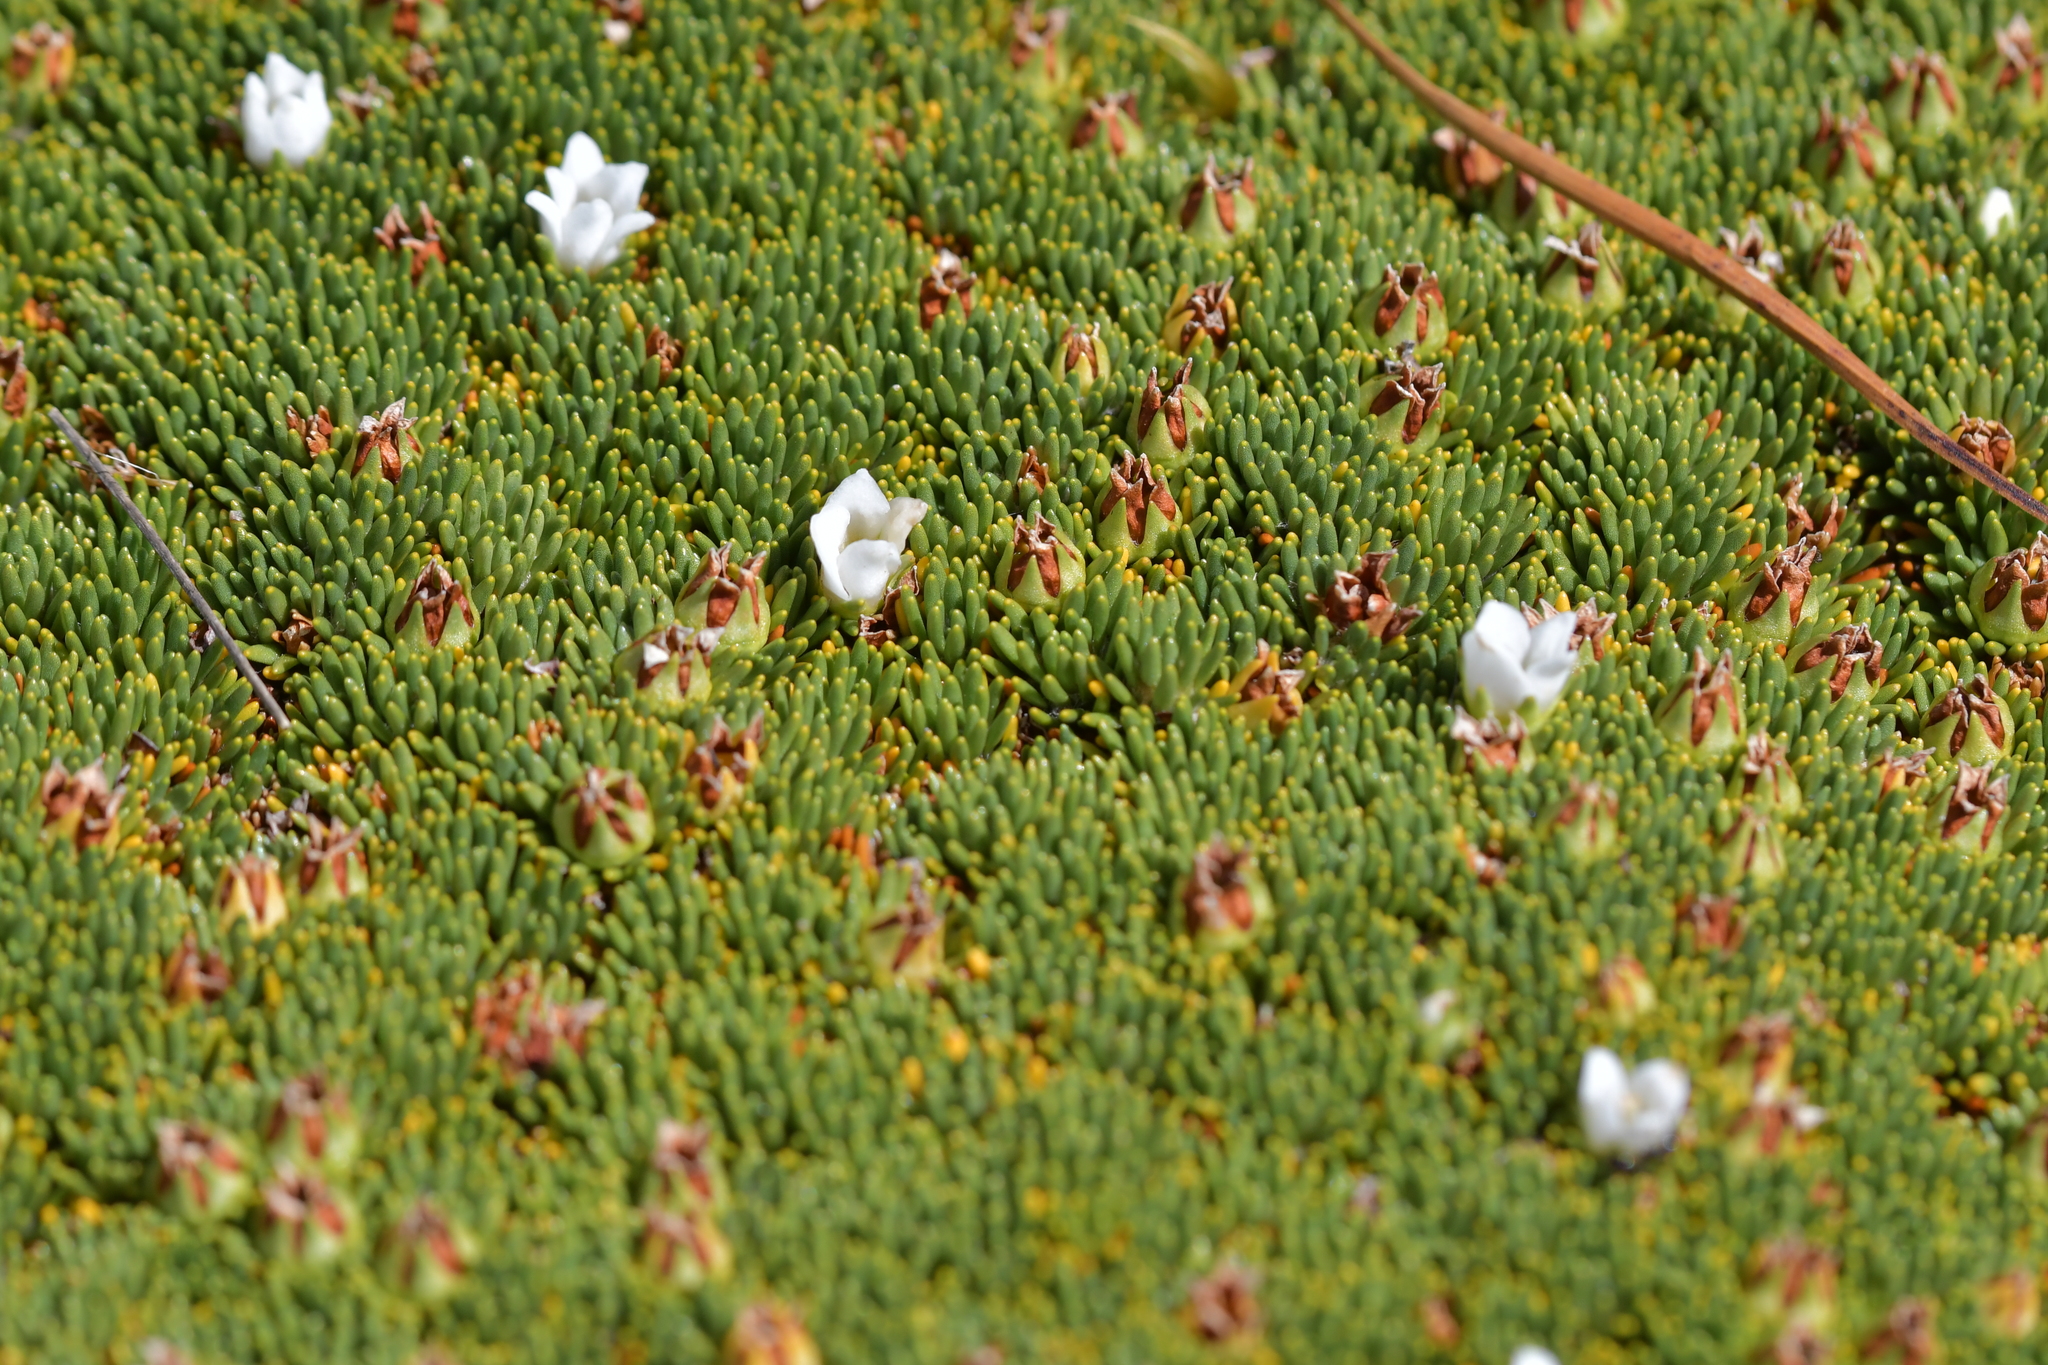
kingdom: Plantae
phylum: Tracheophyta
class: Magnoliopsida
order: Asterales
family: Stylidiaceae
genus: Donatia
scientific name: Donatia novae-zelandiae
